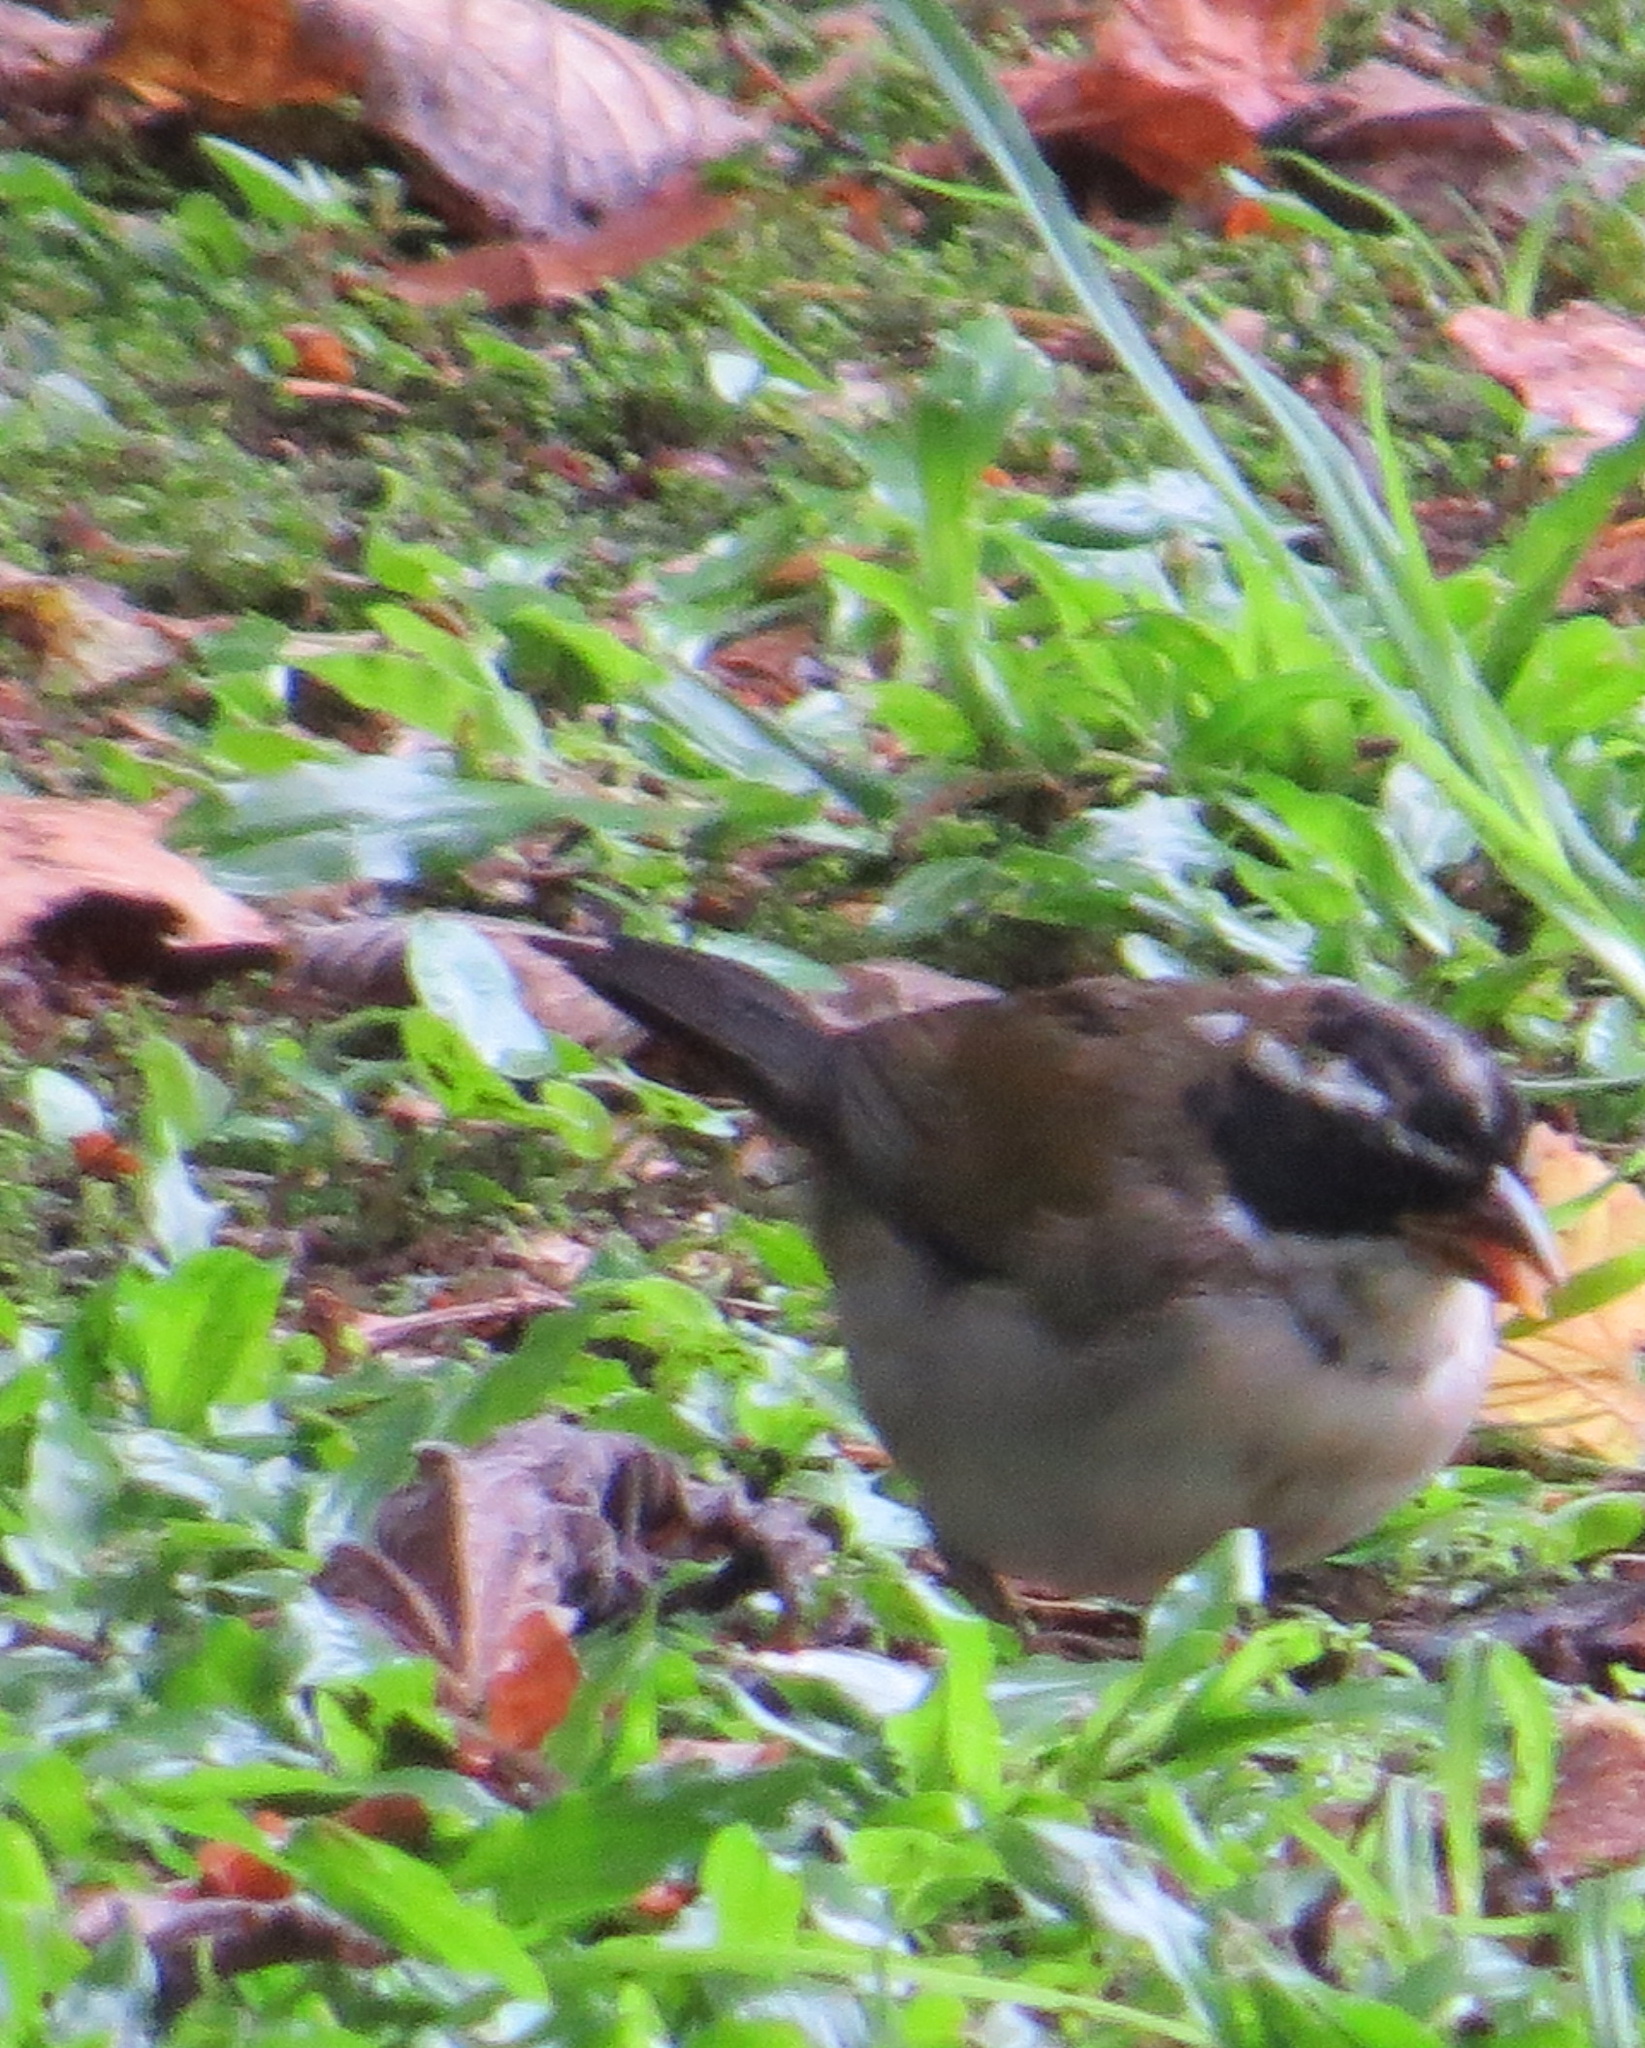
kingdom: Animalia
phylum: Chordata
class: Aves
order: Passeriformes
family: Passerellidae
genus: Arremon
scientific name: Arremon dorbignii
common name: Moss-backed sparrow
